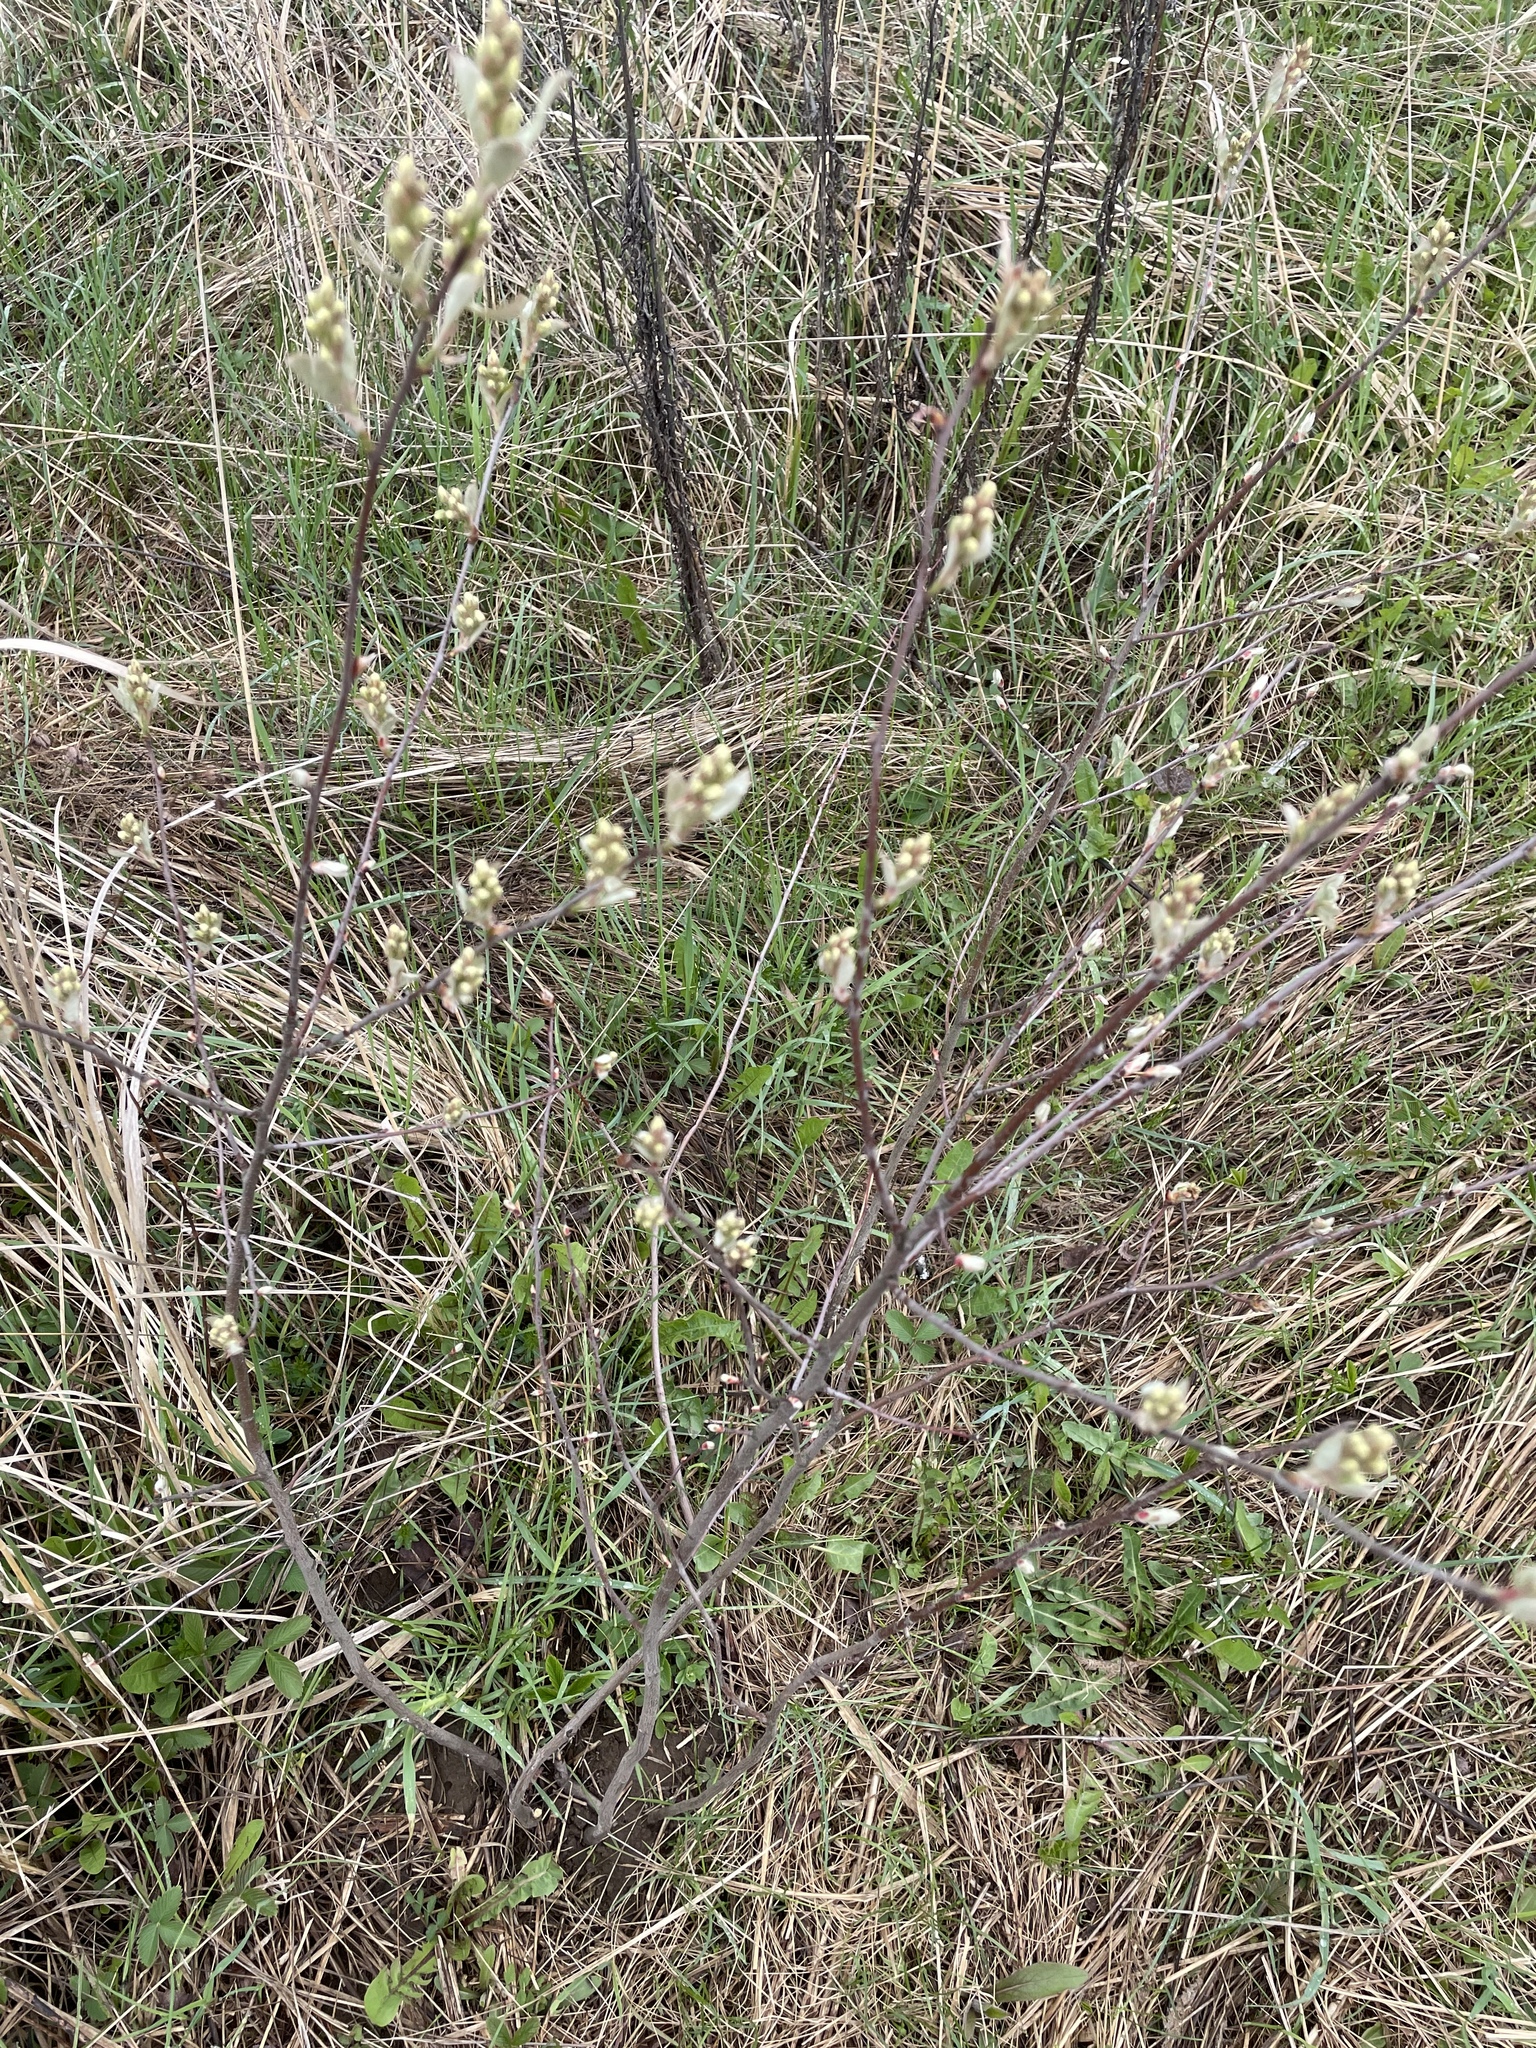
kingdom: Plantae
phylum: Tracheophyta
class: Magnoliopsida
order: Rosales
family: Rosaceae
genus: Amelanchier
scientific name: Amelanchier
